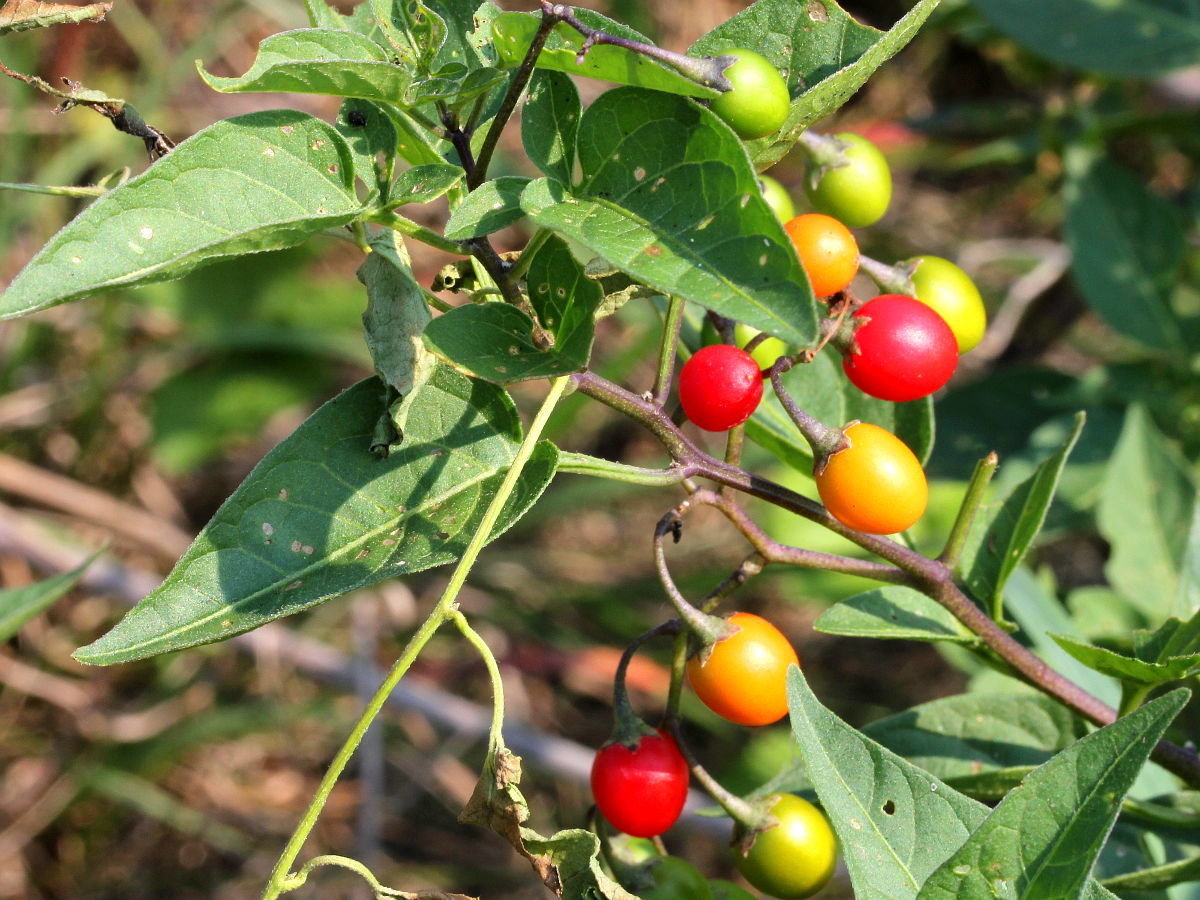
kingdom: Plantae
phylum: Tracheophyta
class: Magnoliopsida
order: Solanales
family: Solanaceae
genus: Solanum
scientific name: Solanum dulcamara
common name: Climbing nightshade
